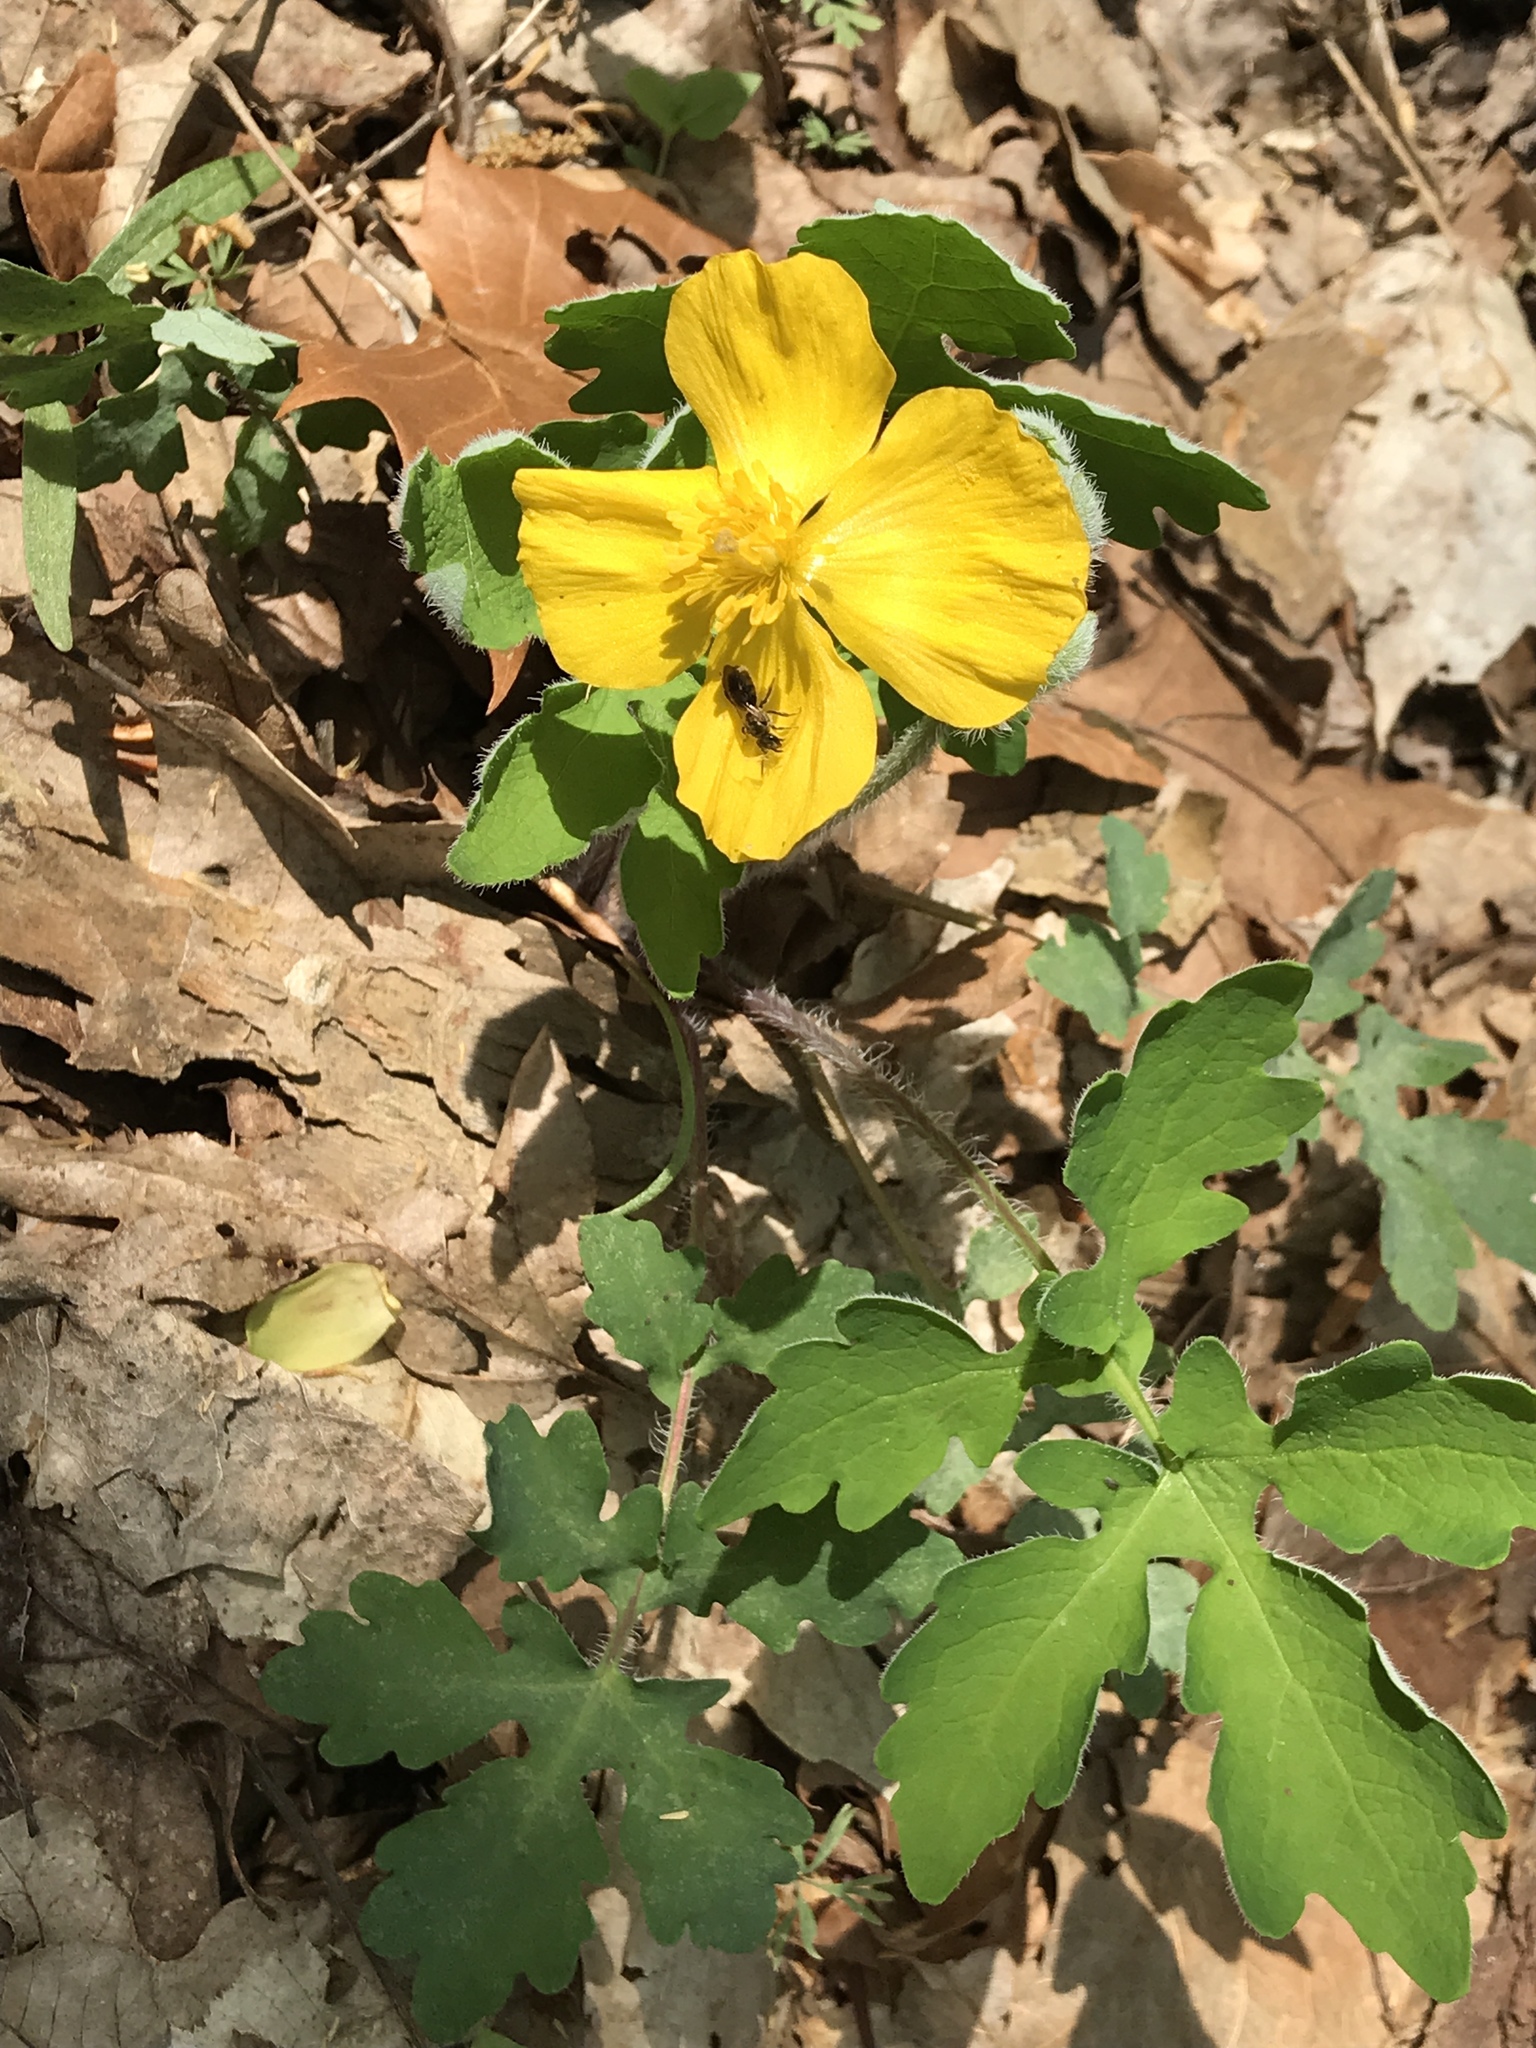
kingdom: Plantae
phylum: Tracheophyta
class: Magnoliopsida
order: Ranunculales
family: Papaveraceae
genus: Stylophorum
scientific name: Stylophorum diphyllum
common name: Celandine poppy
